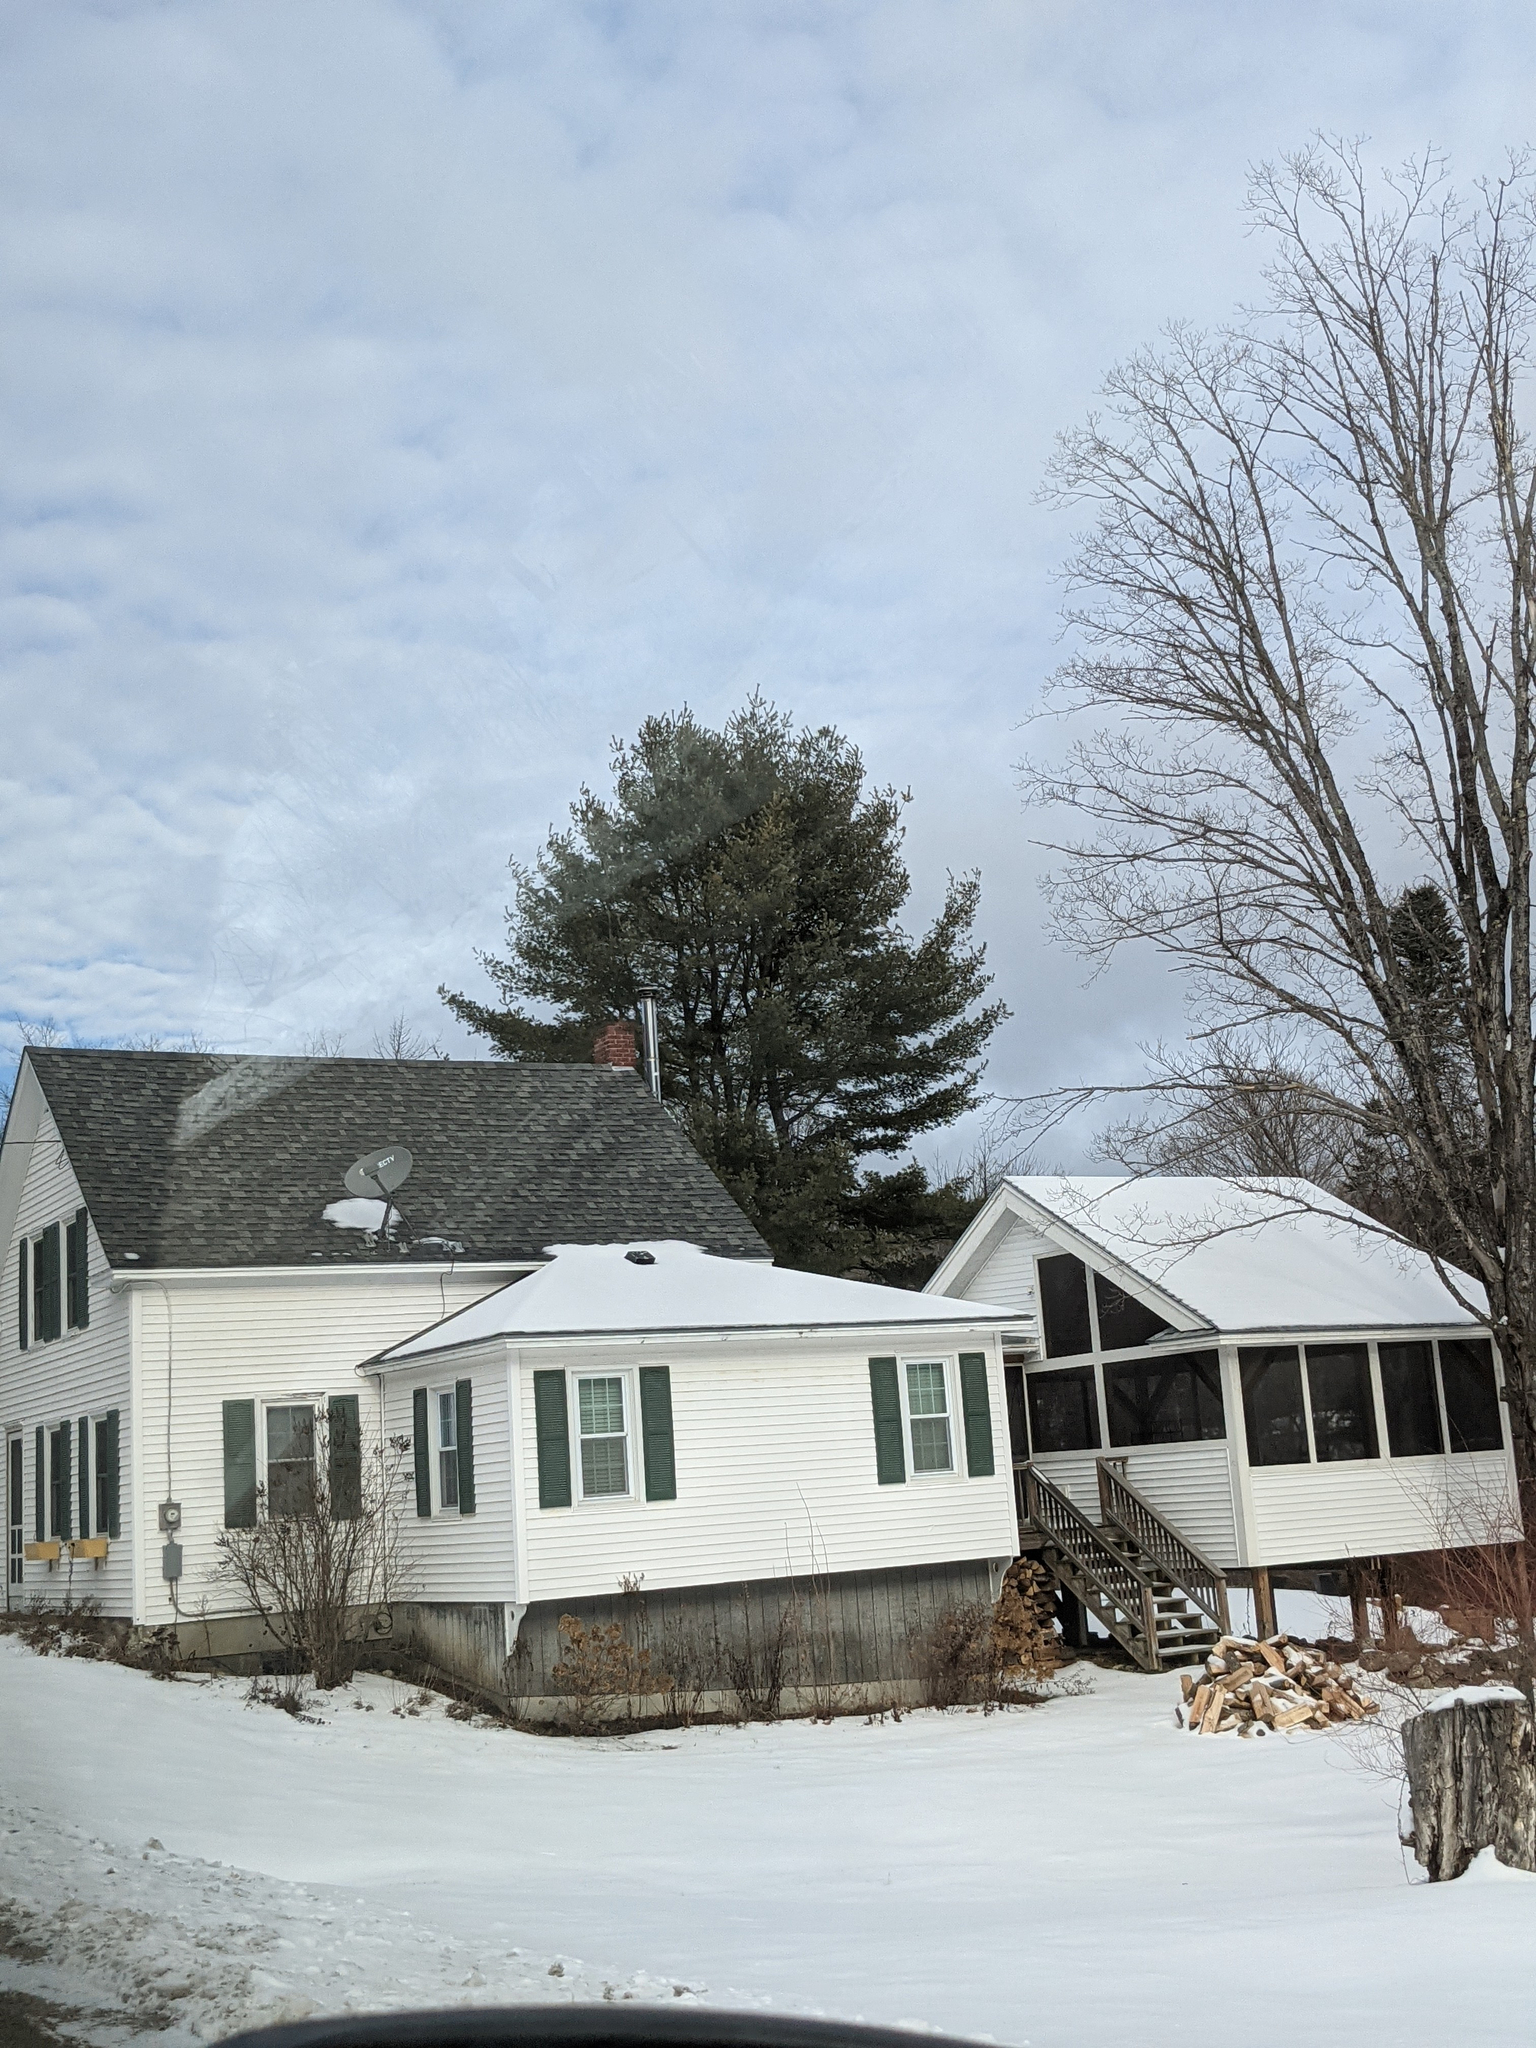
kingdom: Plantae
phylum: Tracheophyta
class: Pinopsida
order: Pinales
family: Pinaceae
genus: Pinus
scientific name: Pinus strobus
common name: Weymouth pine
